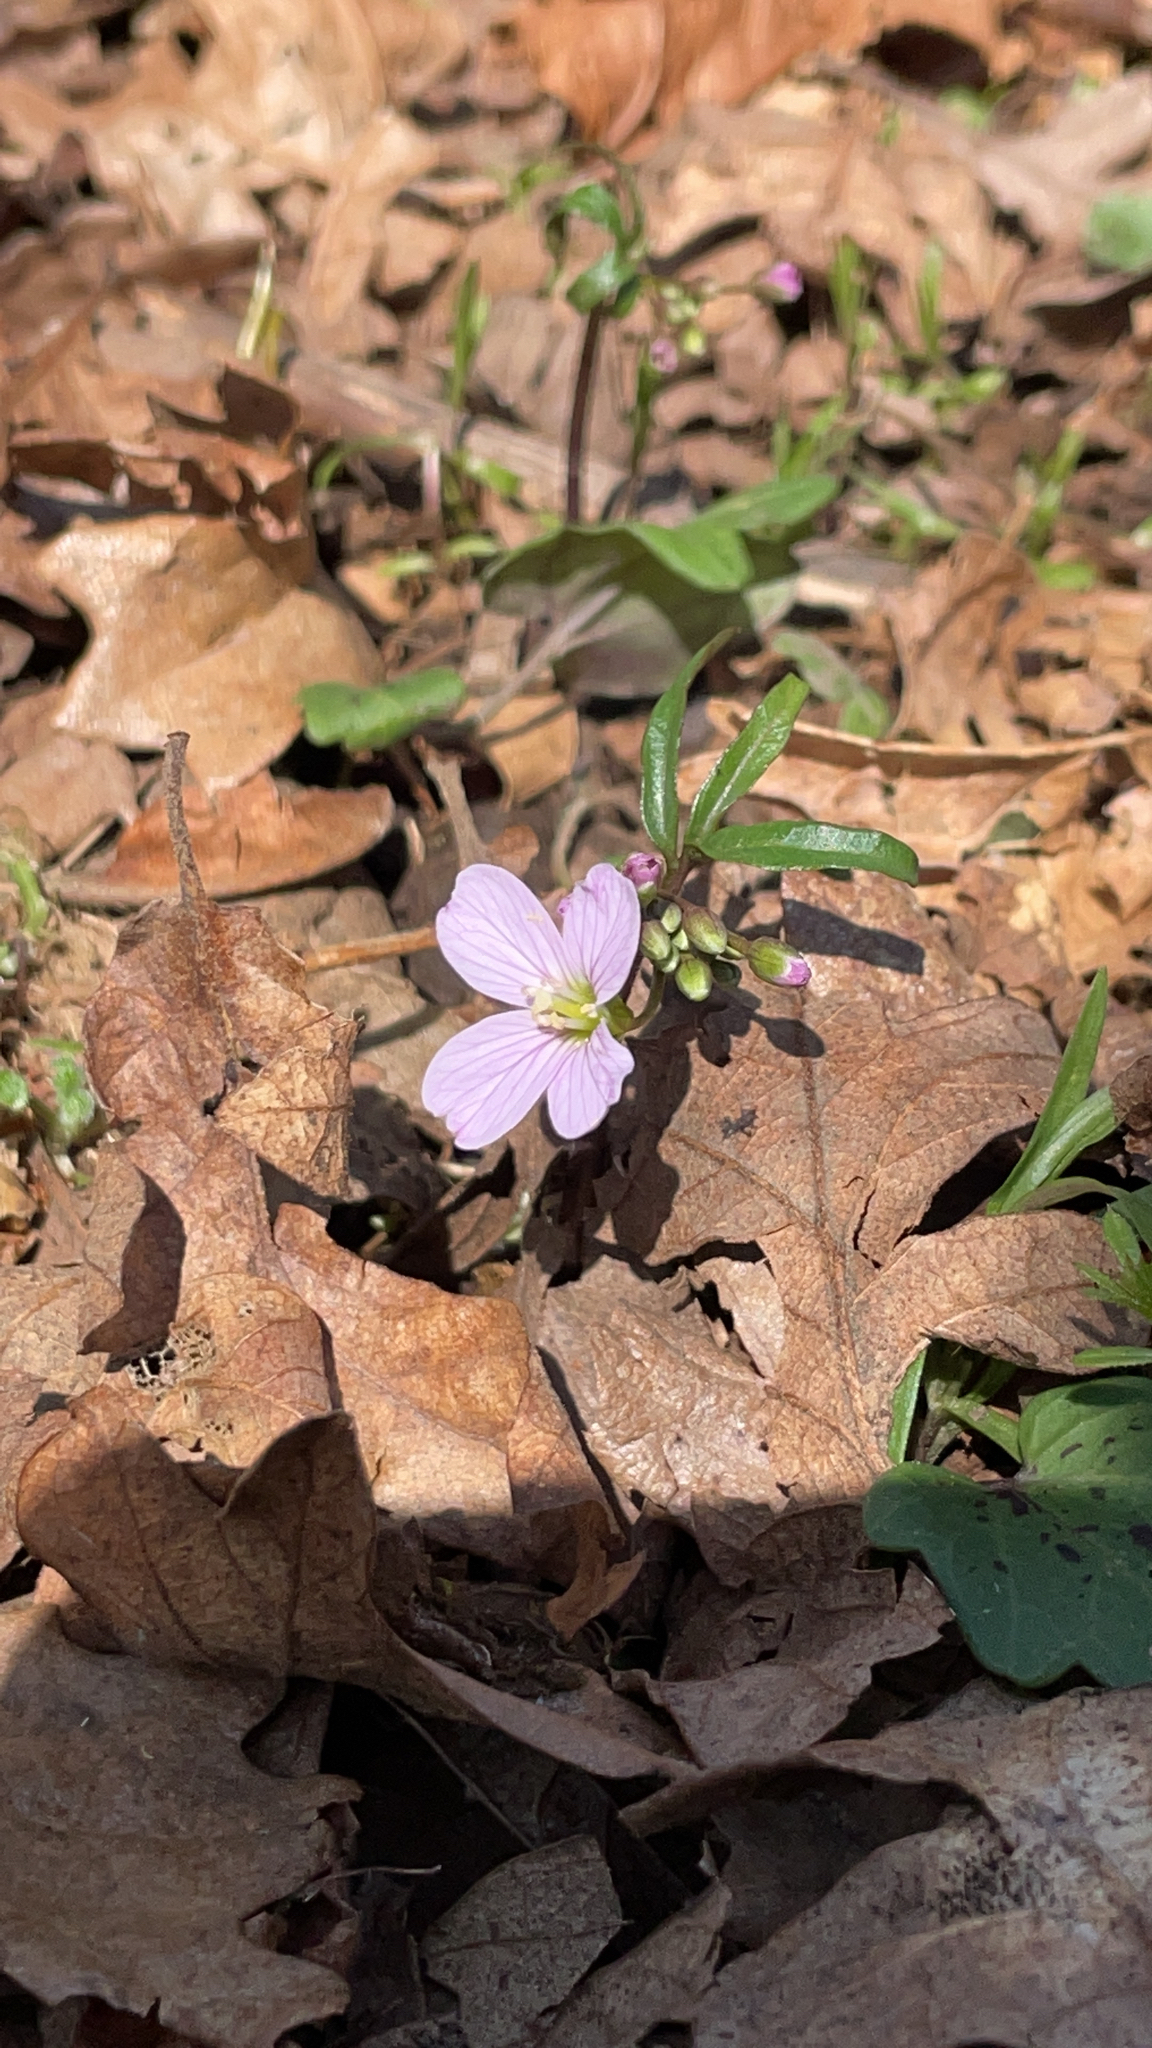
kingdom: Plantae
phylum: Tracheophyta
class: Magnoliopsida
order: Brassicales
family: Brassicaceae
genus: Cardamine
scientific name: Cardamine nuttallii
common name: Nuttall's toothwort
